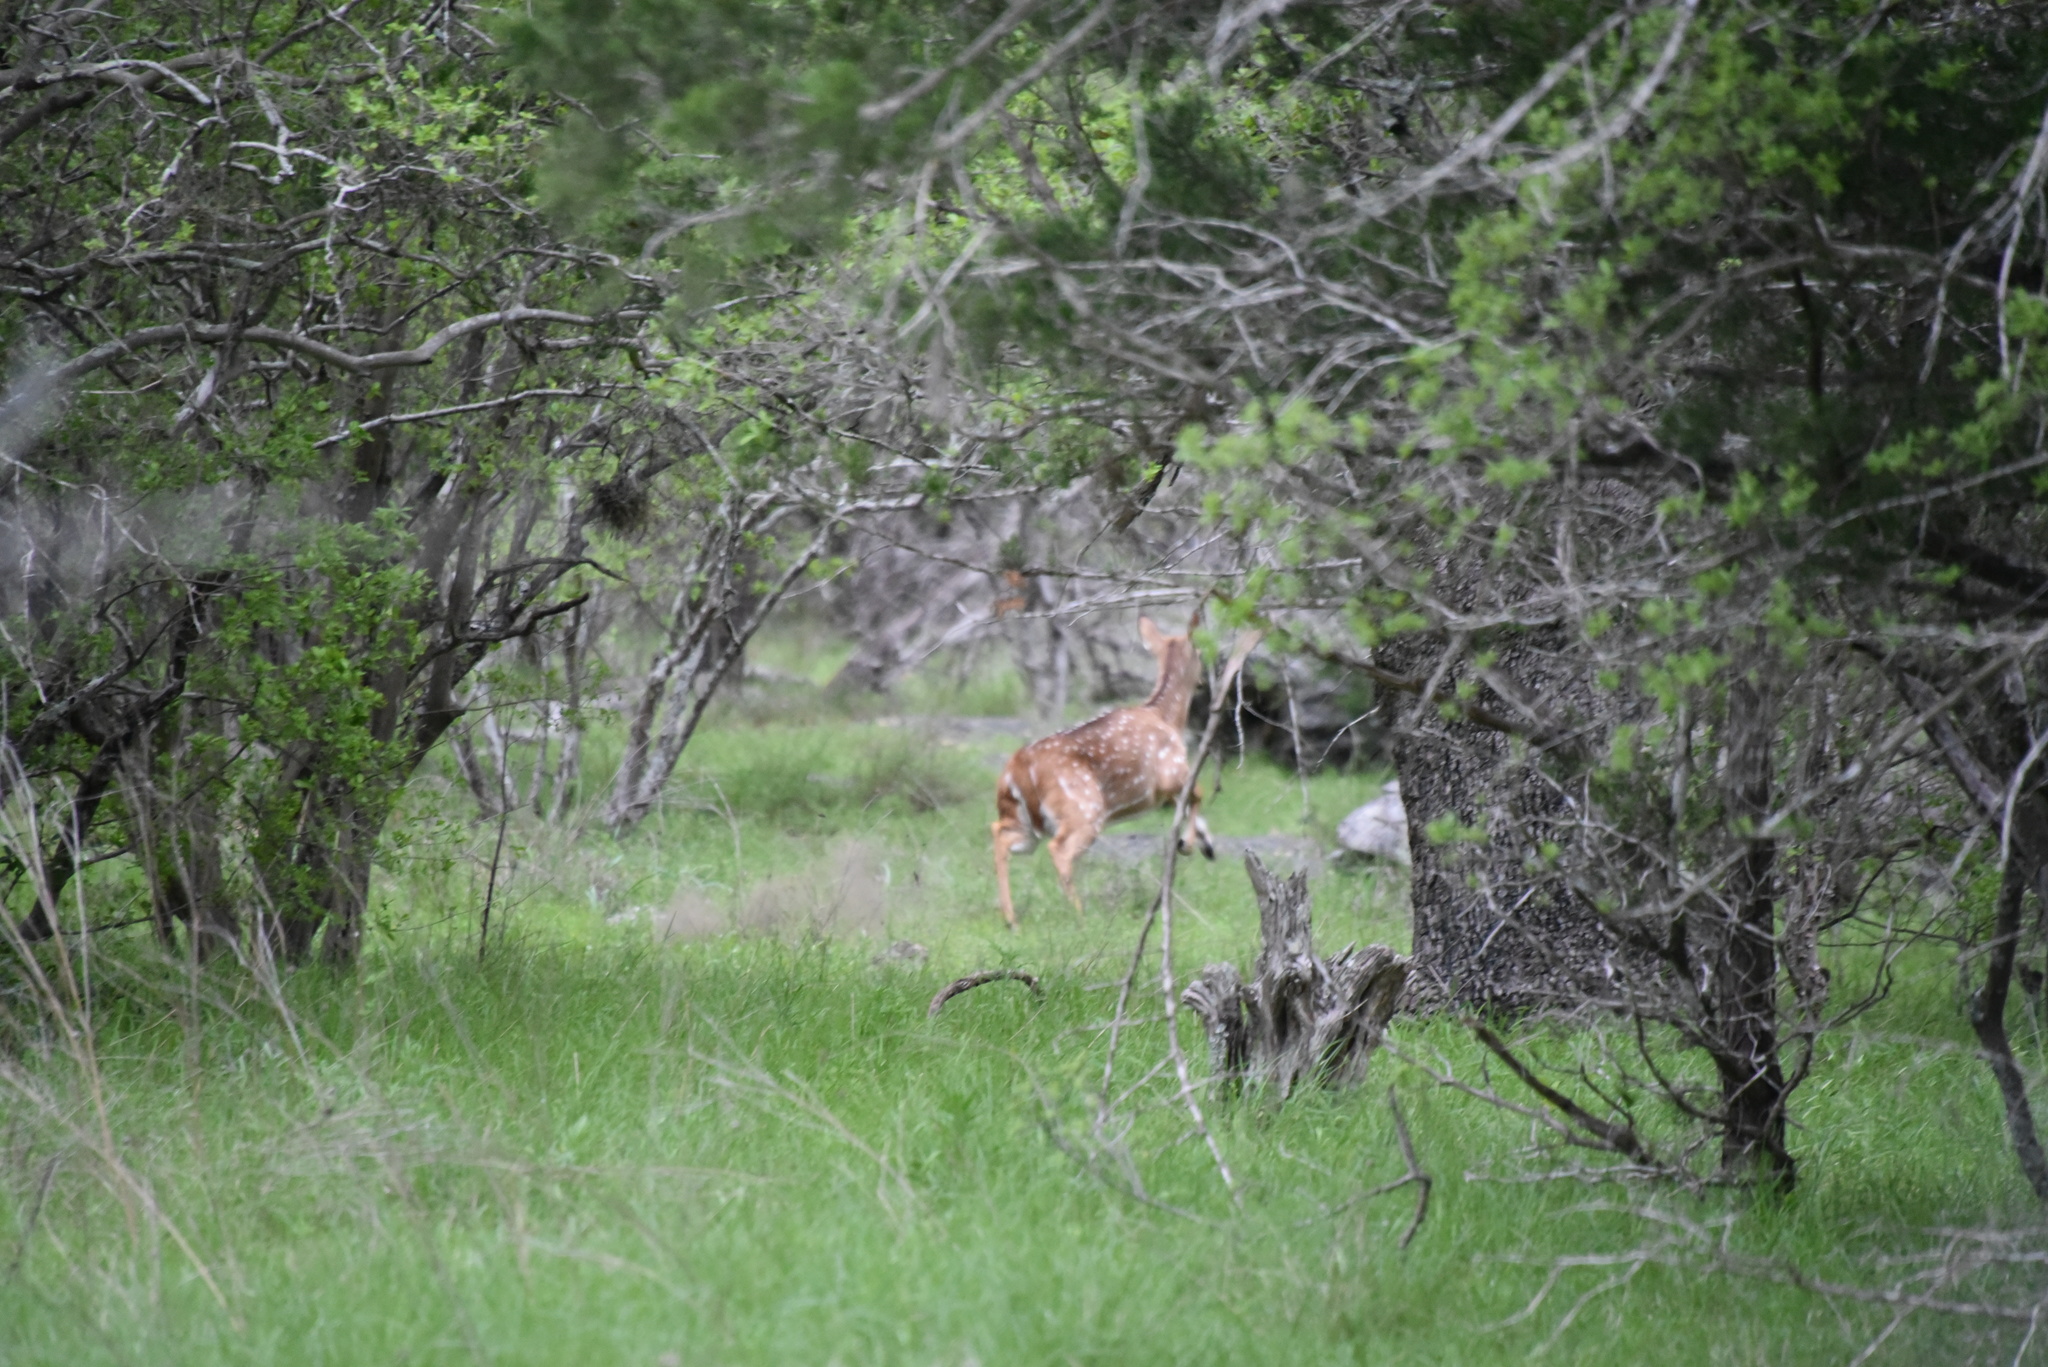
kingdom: Animalia
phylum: Chordata
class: Mammalia
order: Artiodactyla
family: Cervidae
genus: Axis
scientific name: Axis axis
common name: Chital
